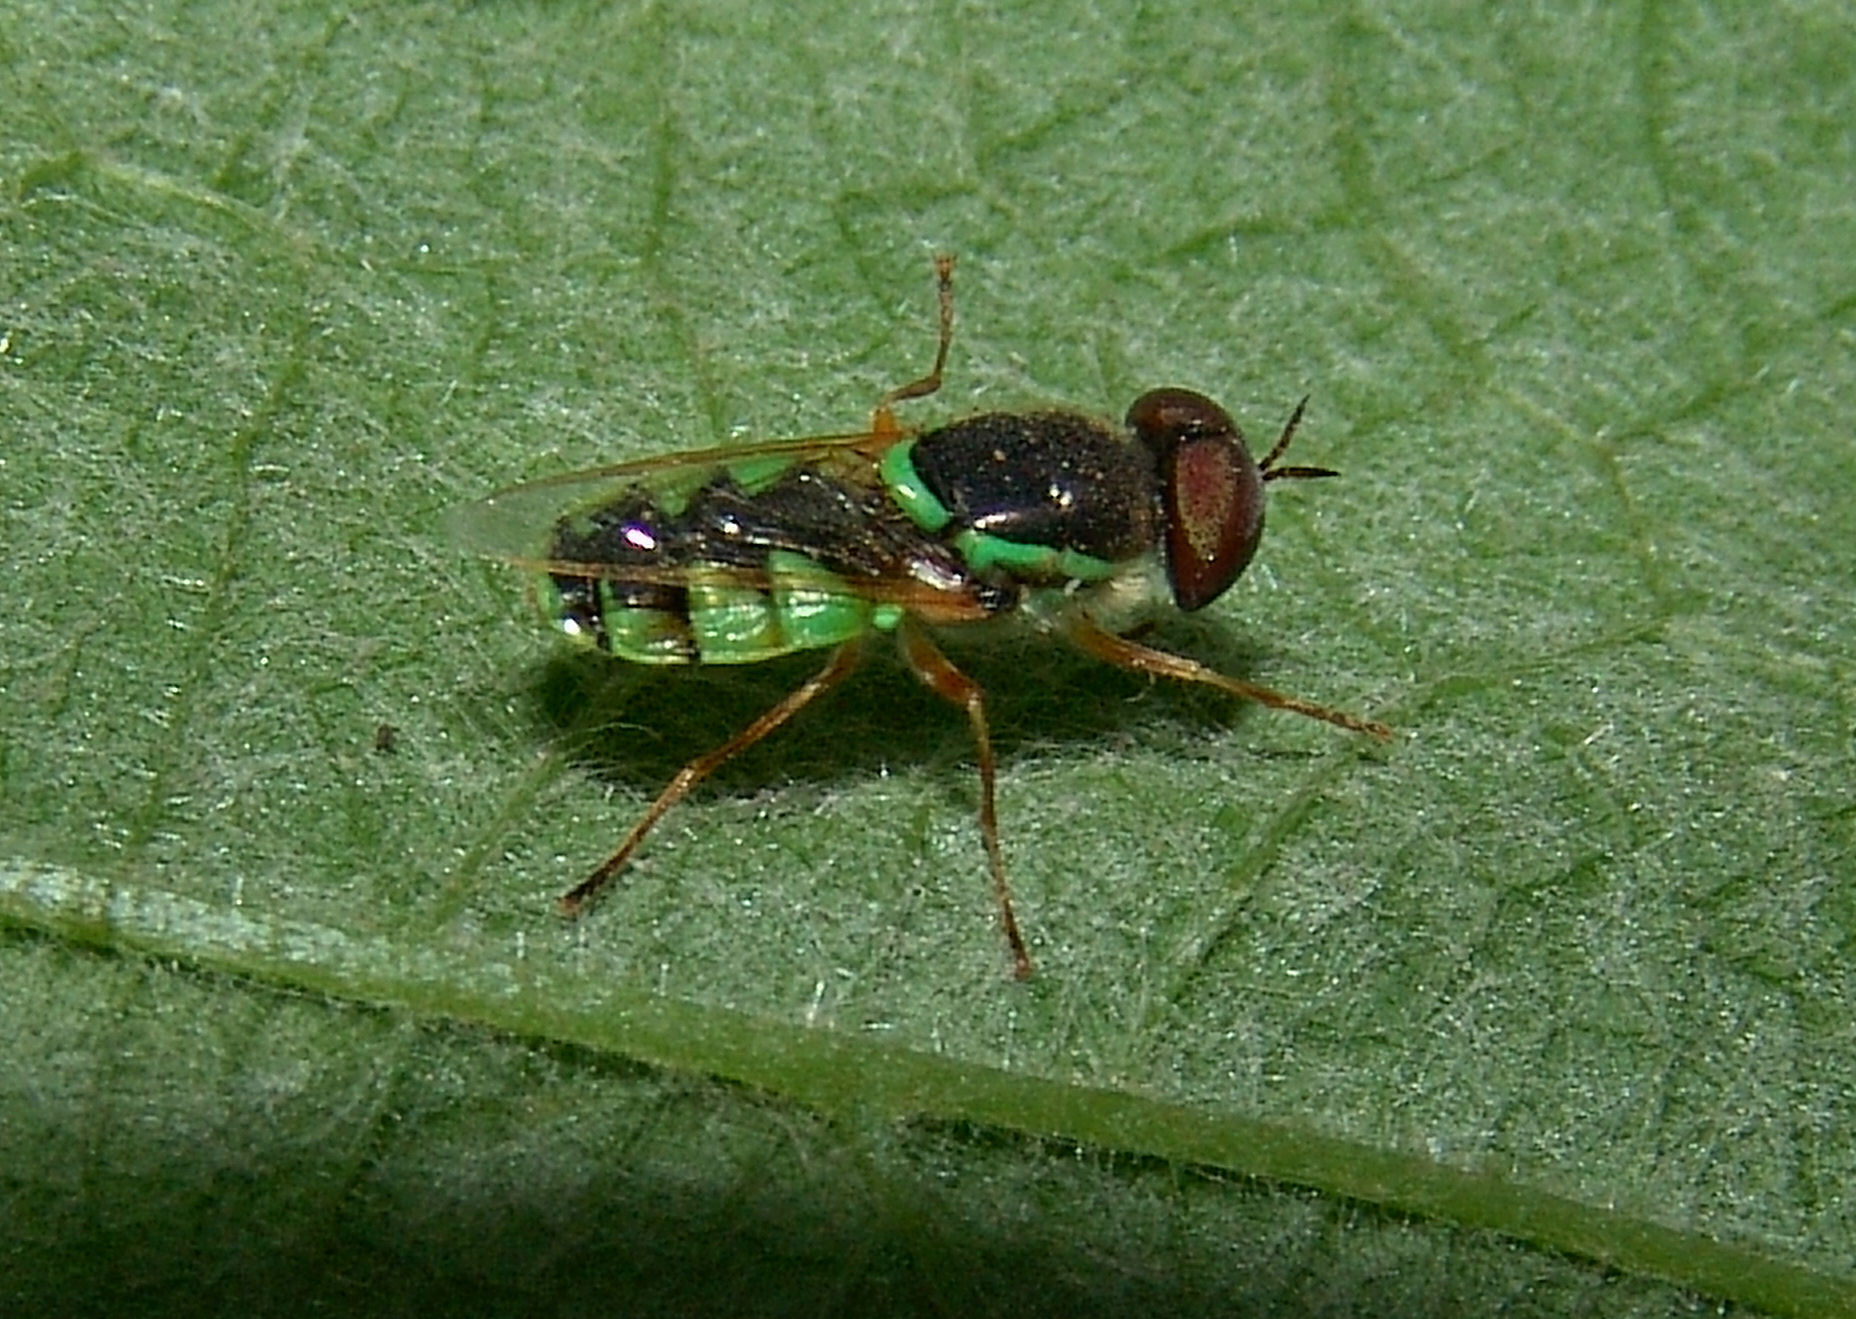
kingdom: Animalia
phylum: Arthropoda
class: Insecta
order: Diptera
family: Stratiomyidae
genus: Odontomyia
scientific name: Odontomyia cincta
